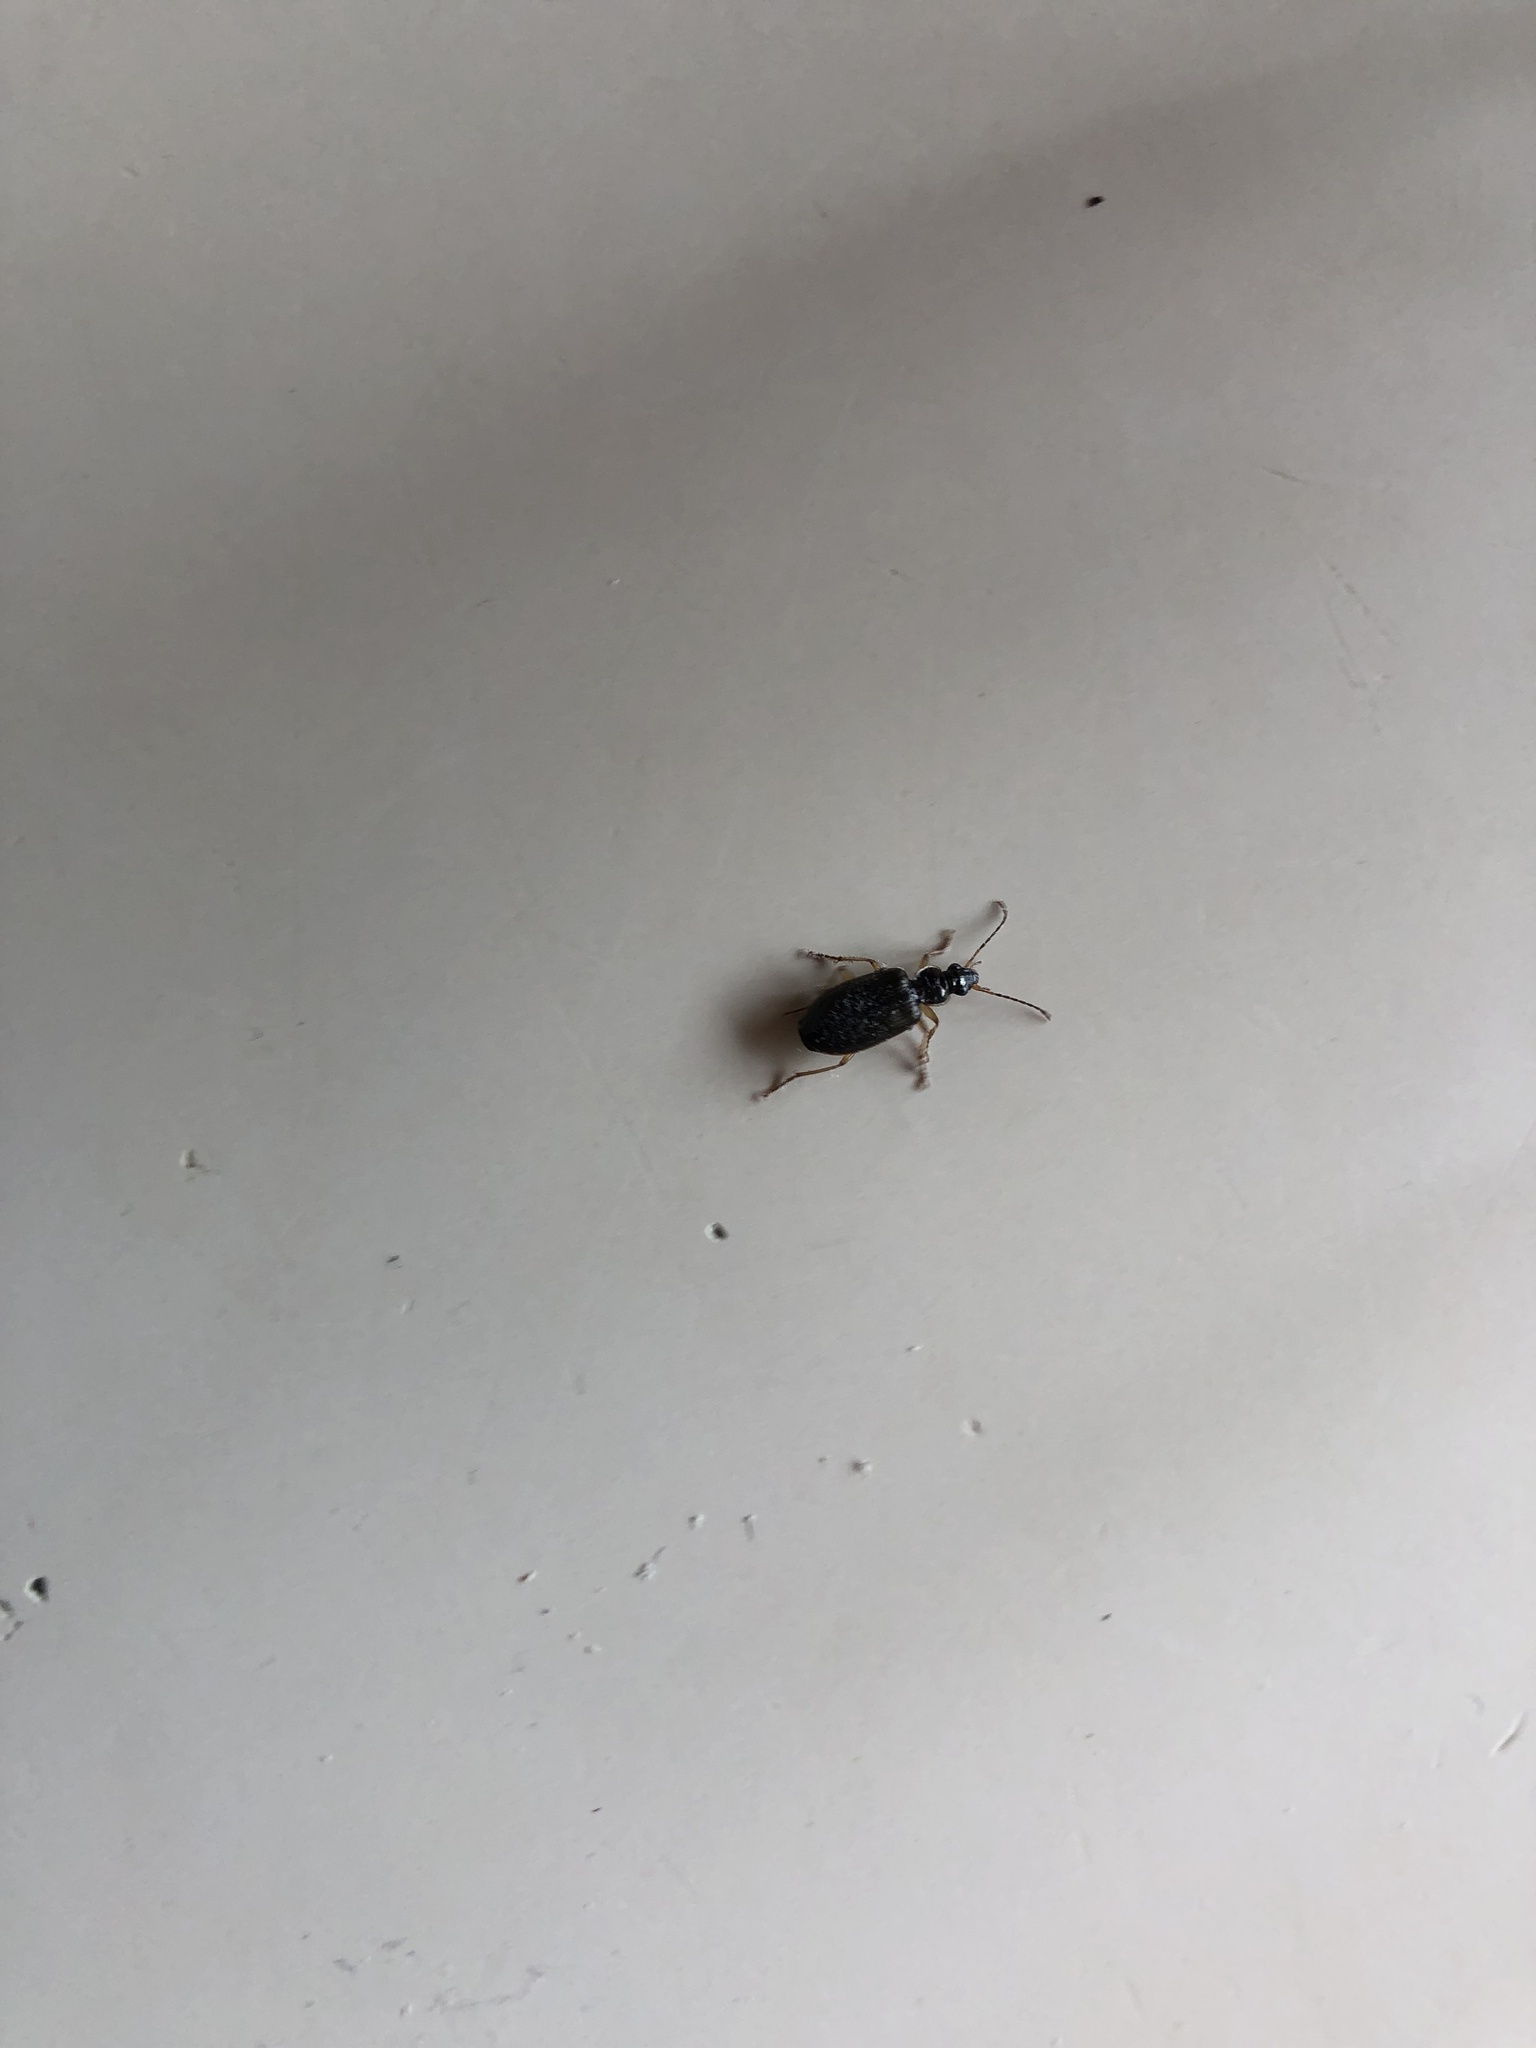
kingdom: Animalia
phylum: Arthropoda
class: Insecta
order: Coleoptera
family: Carabidae
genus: Notagonum
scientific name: Notagonum submetallicum
